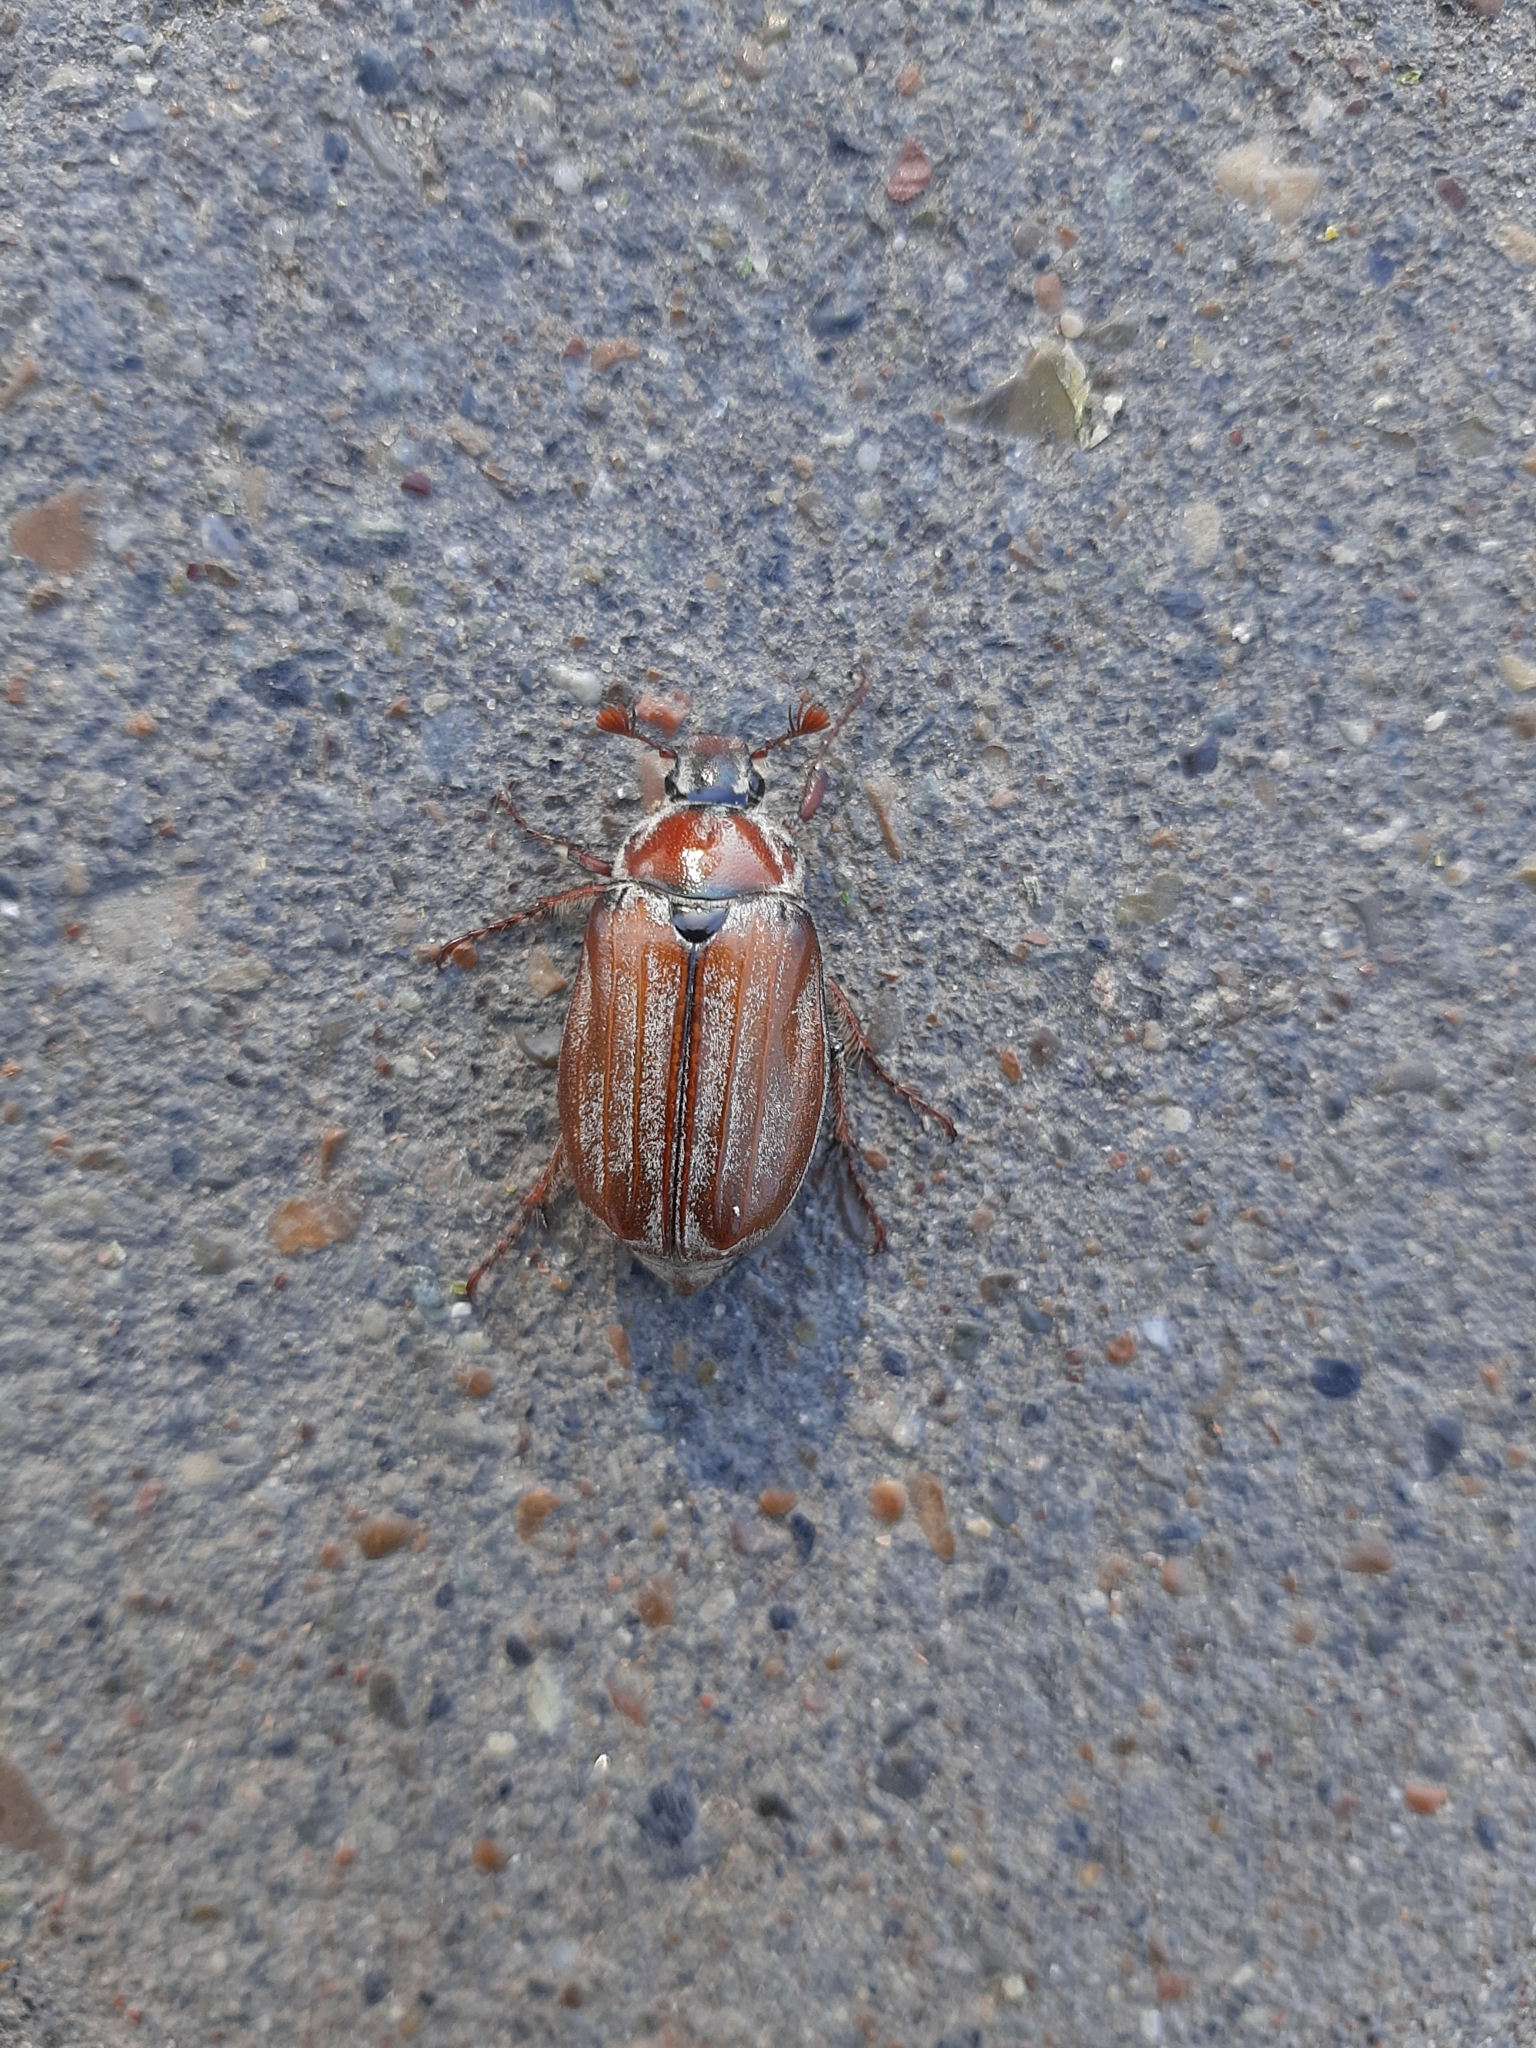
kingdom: Animalia
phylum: Arthropoda
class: Insecta
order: Coleoptera
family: Scarabaeidae
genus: Melolontha
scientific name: Melolontha hippocastani
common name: Chestnut cockchafer
